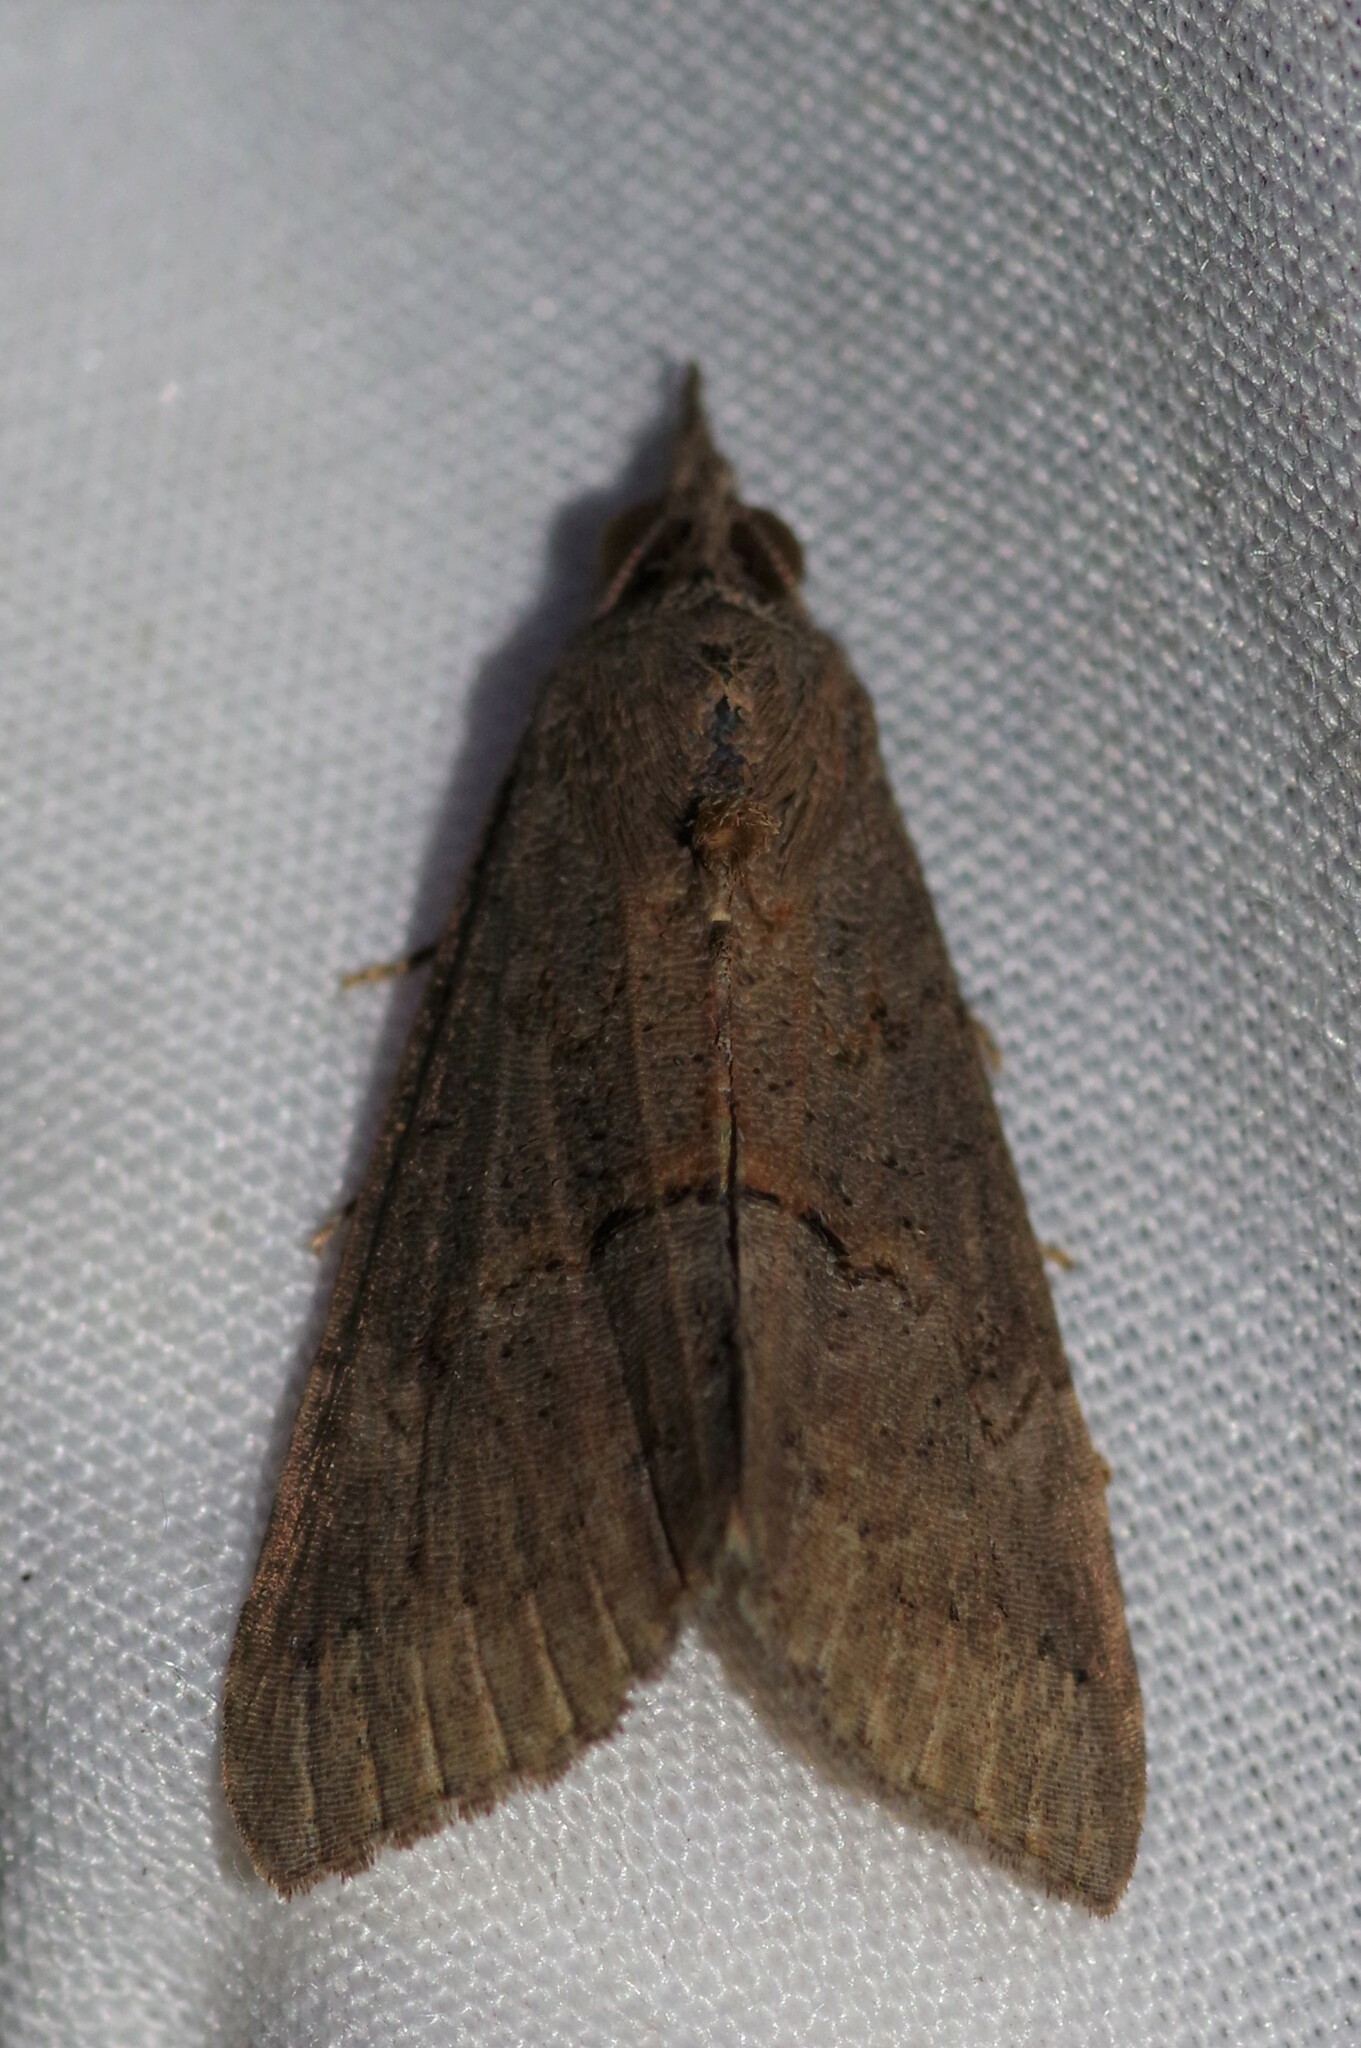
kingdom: Animalia
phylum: Arthropoda
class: Insecta
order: Lepidoptera
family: Erebidae
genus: Hypena
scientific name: Hypena scabra
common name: Green cloverworm
